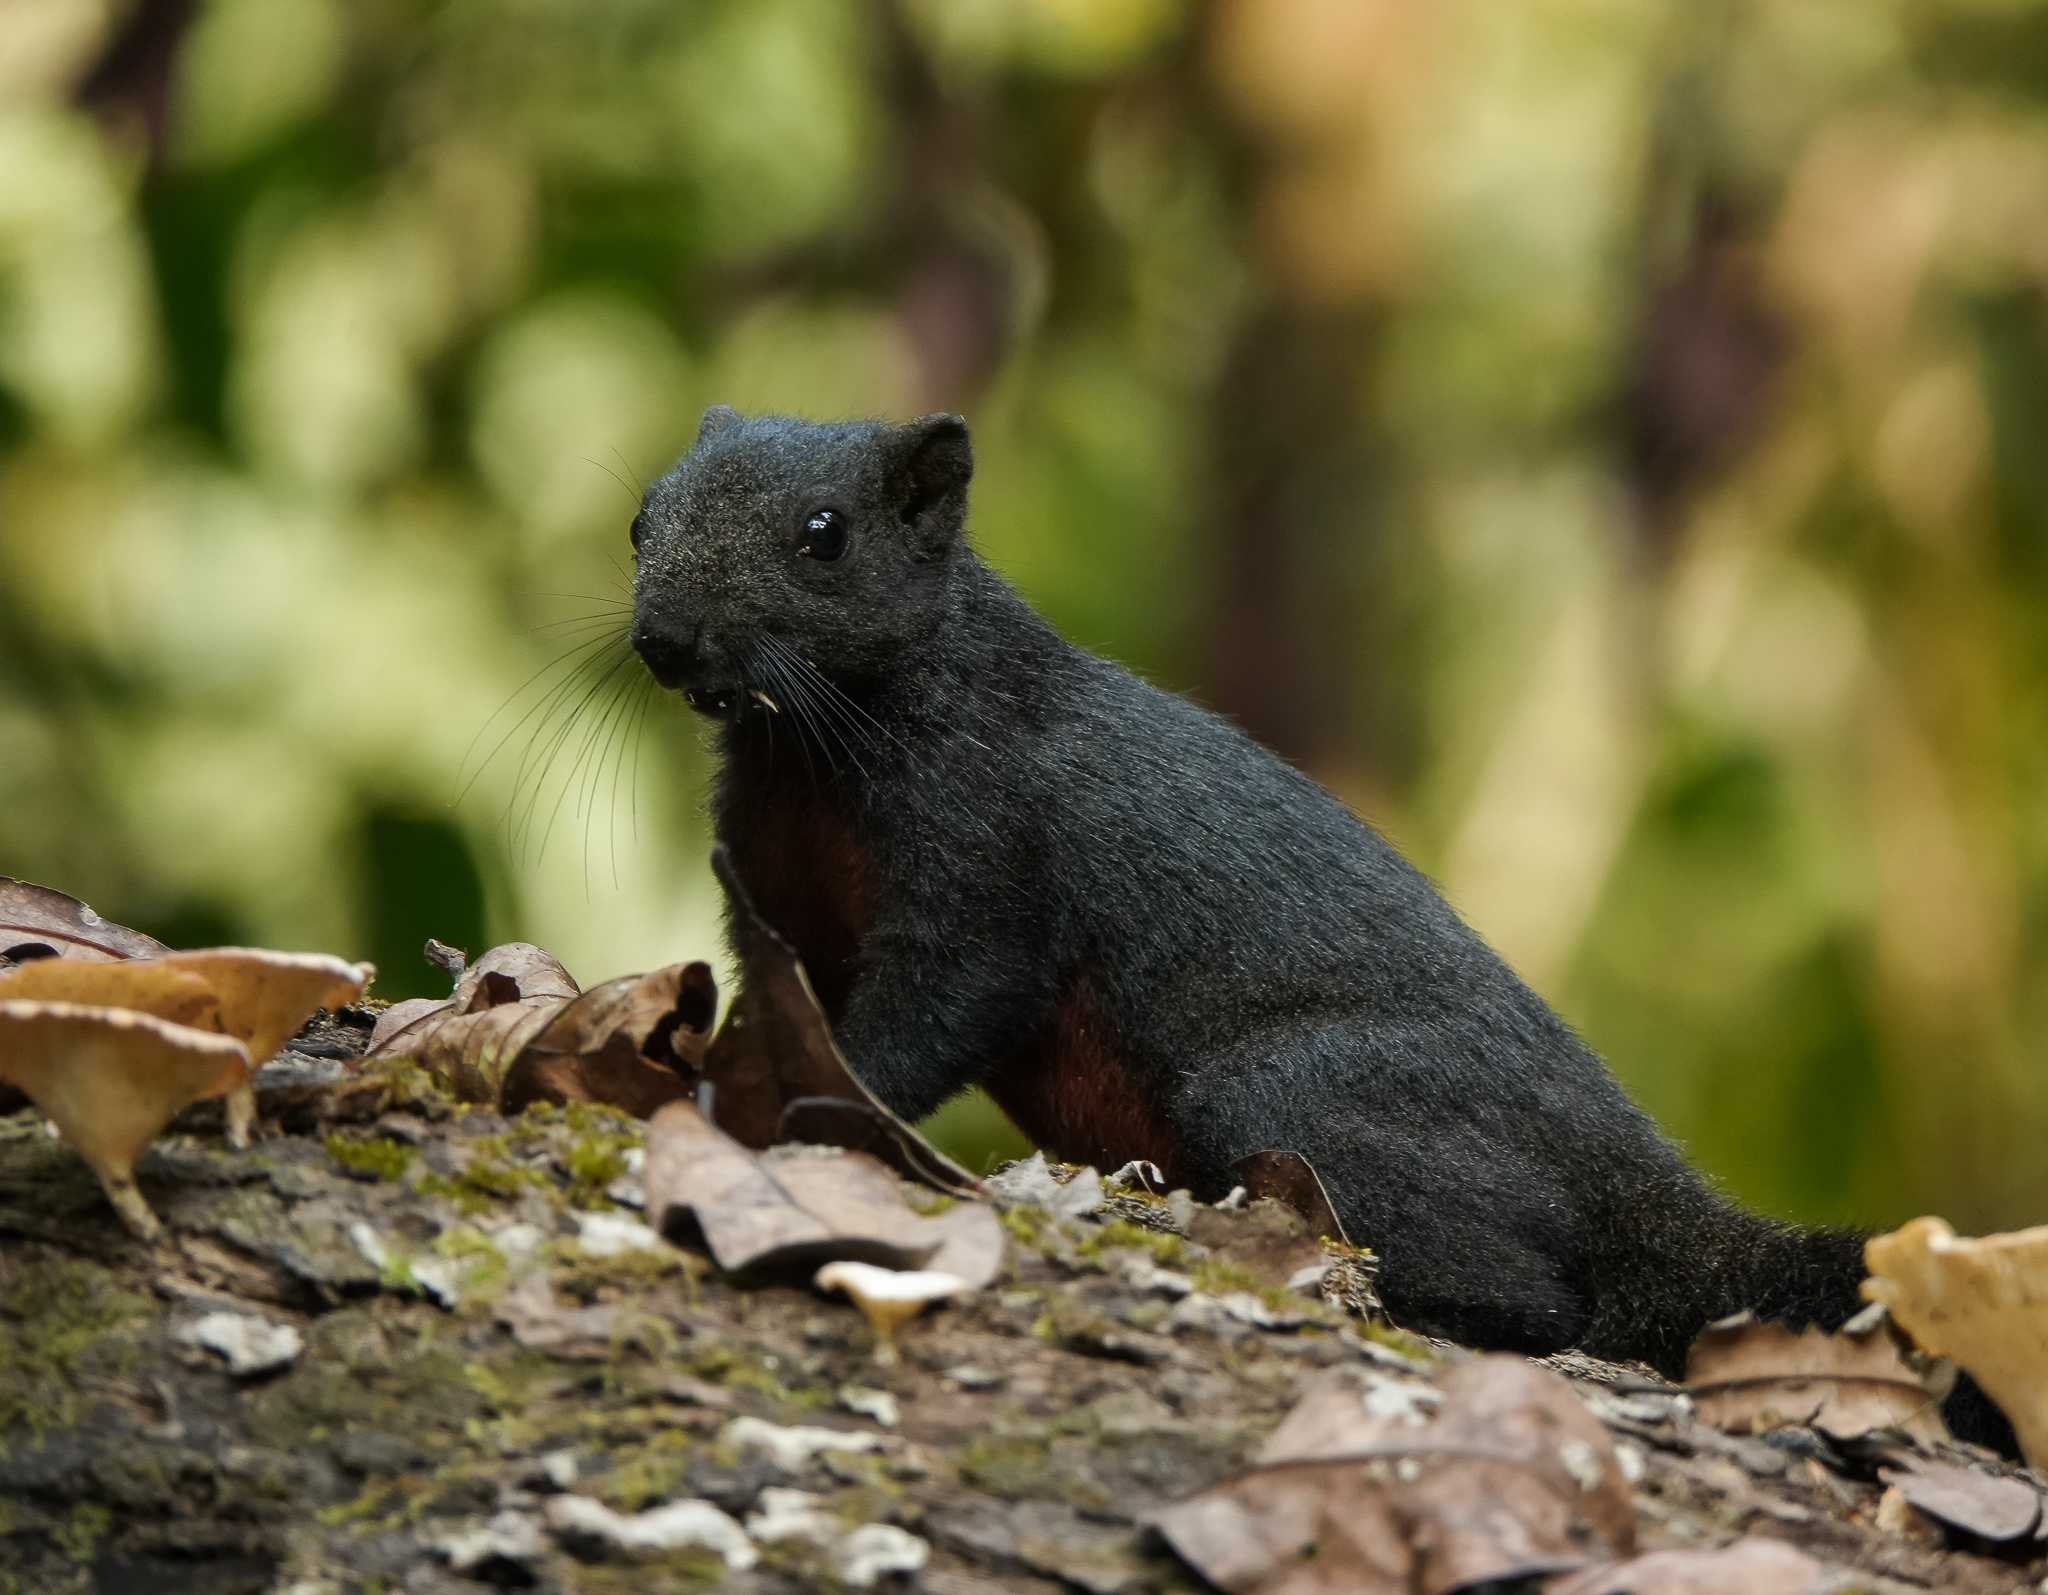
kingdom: Animalia
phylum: Chordata
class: Mammalia
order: Rodentia
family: Sciuridae
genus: Callosciurus
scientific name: Callosciurus erythraeus
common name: Pallas's squirrel
